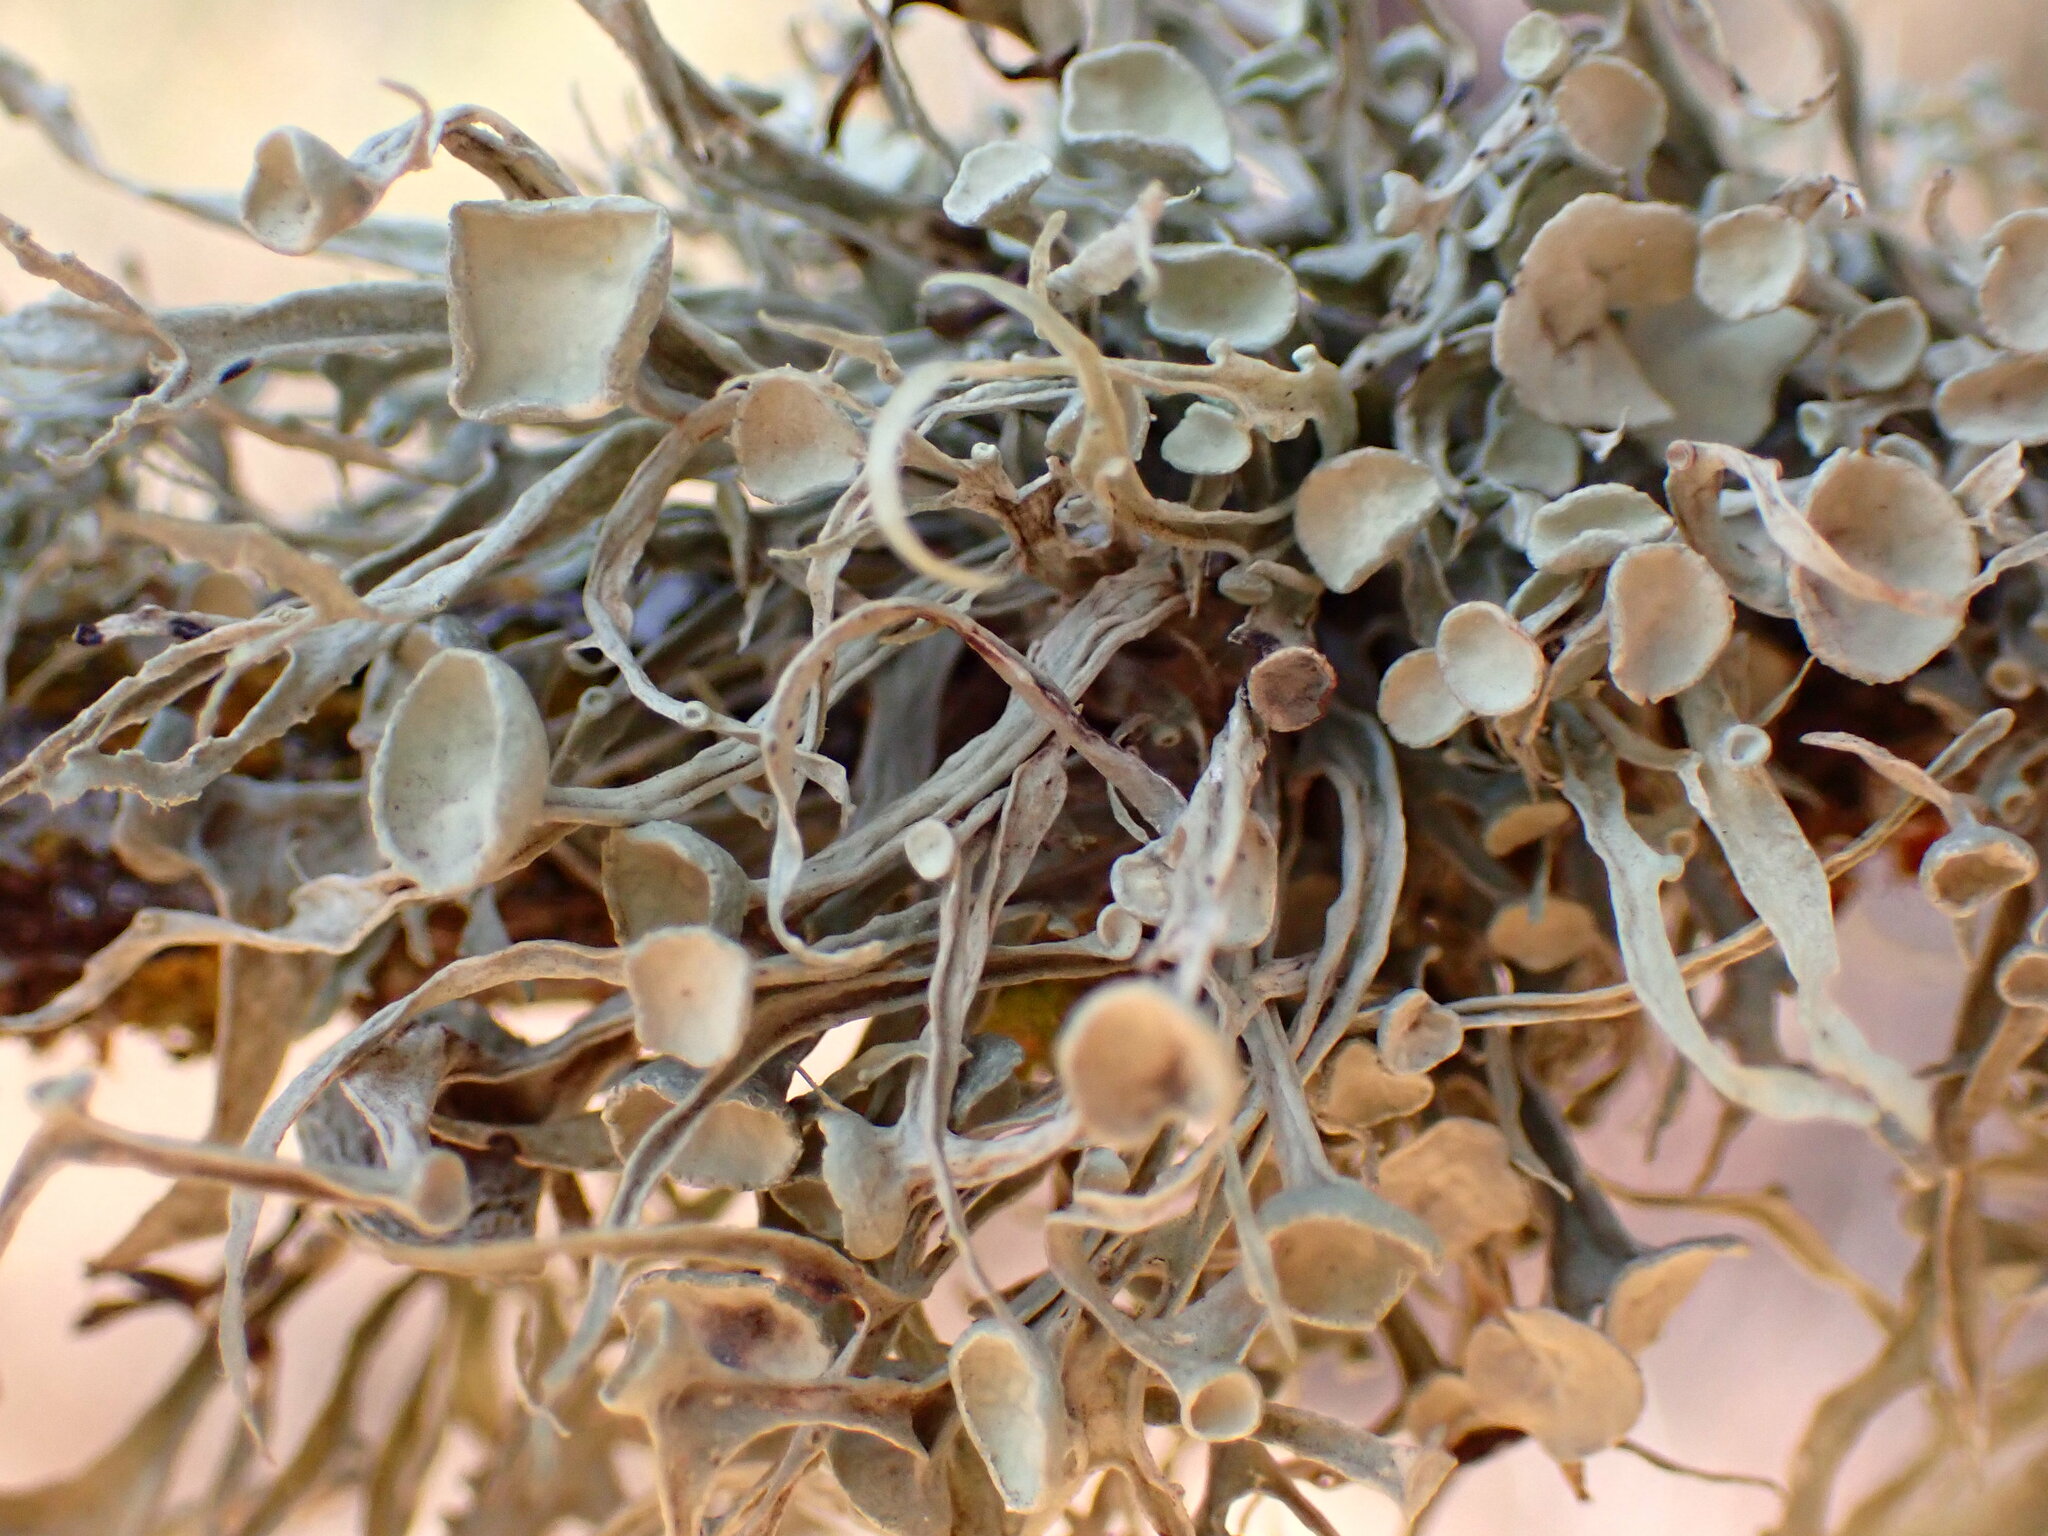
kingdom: Fungi
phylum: Ascomycota
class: Lecanoromycetes
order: Lecanorales
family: Ramalinaceae
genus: Ramalina
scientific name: Ramalina leptocarpha
